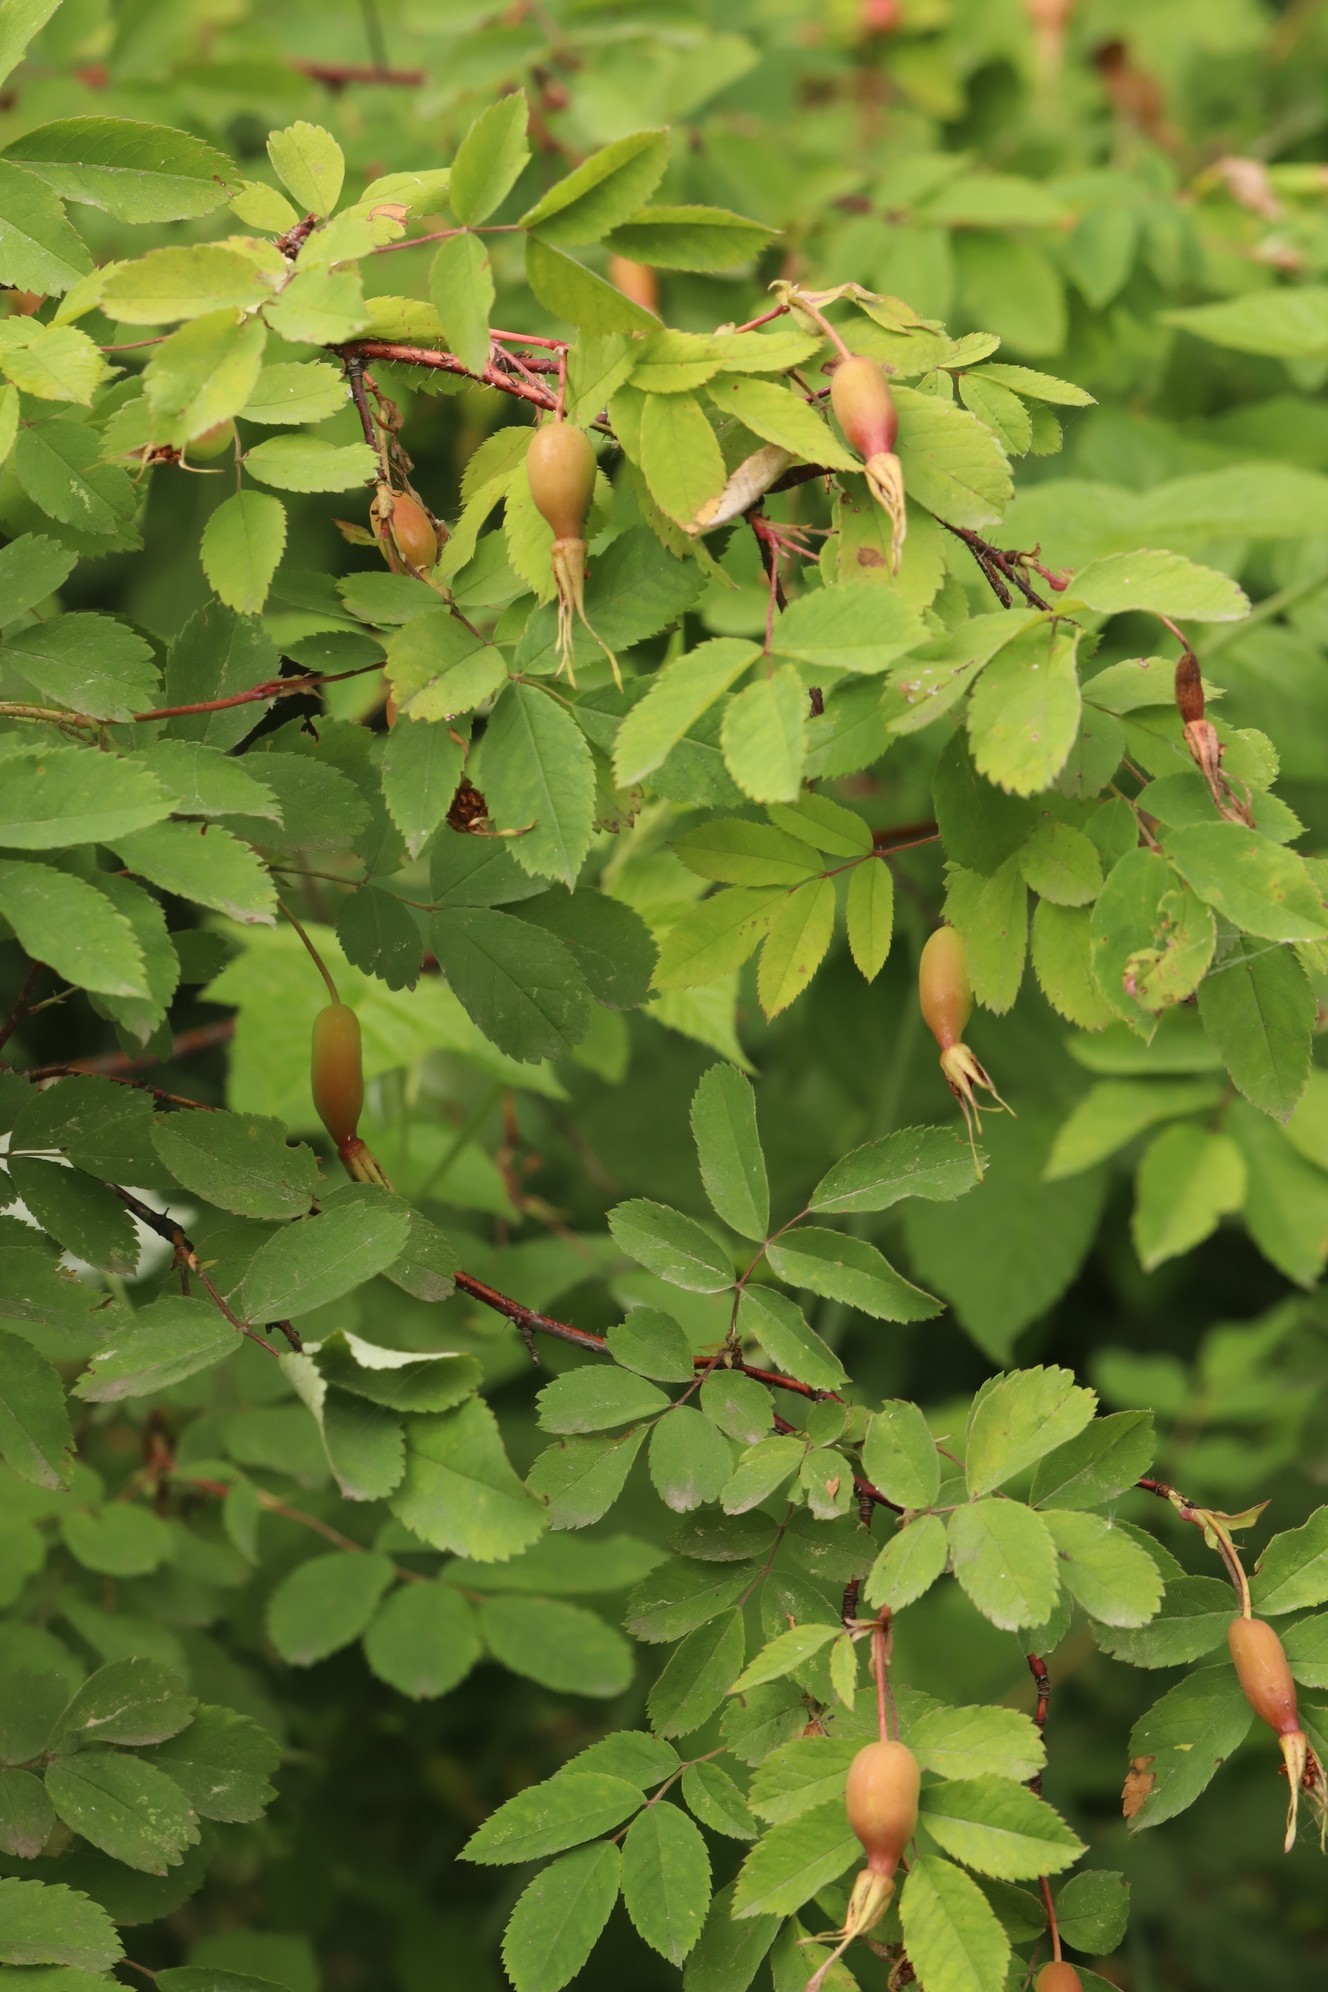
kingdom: Plantae
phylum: Tracheophyta
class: Magnoliopsida
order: Rosales
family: Rosaceae
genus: Rosa
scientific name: Rosa acicularis
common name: Prickly rose
